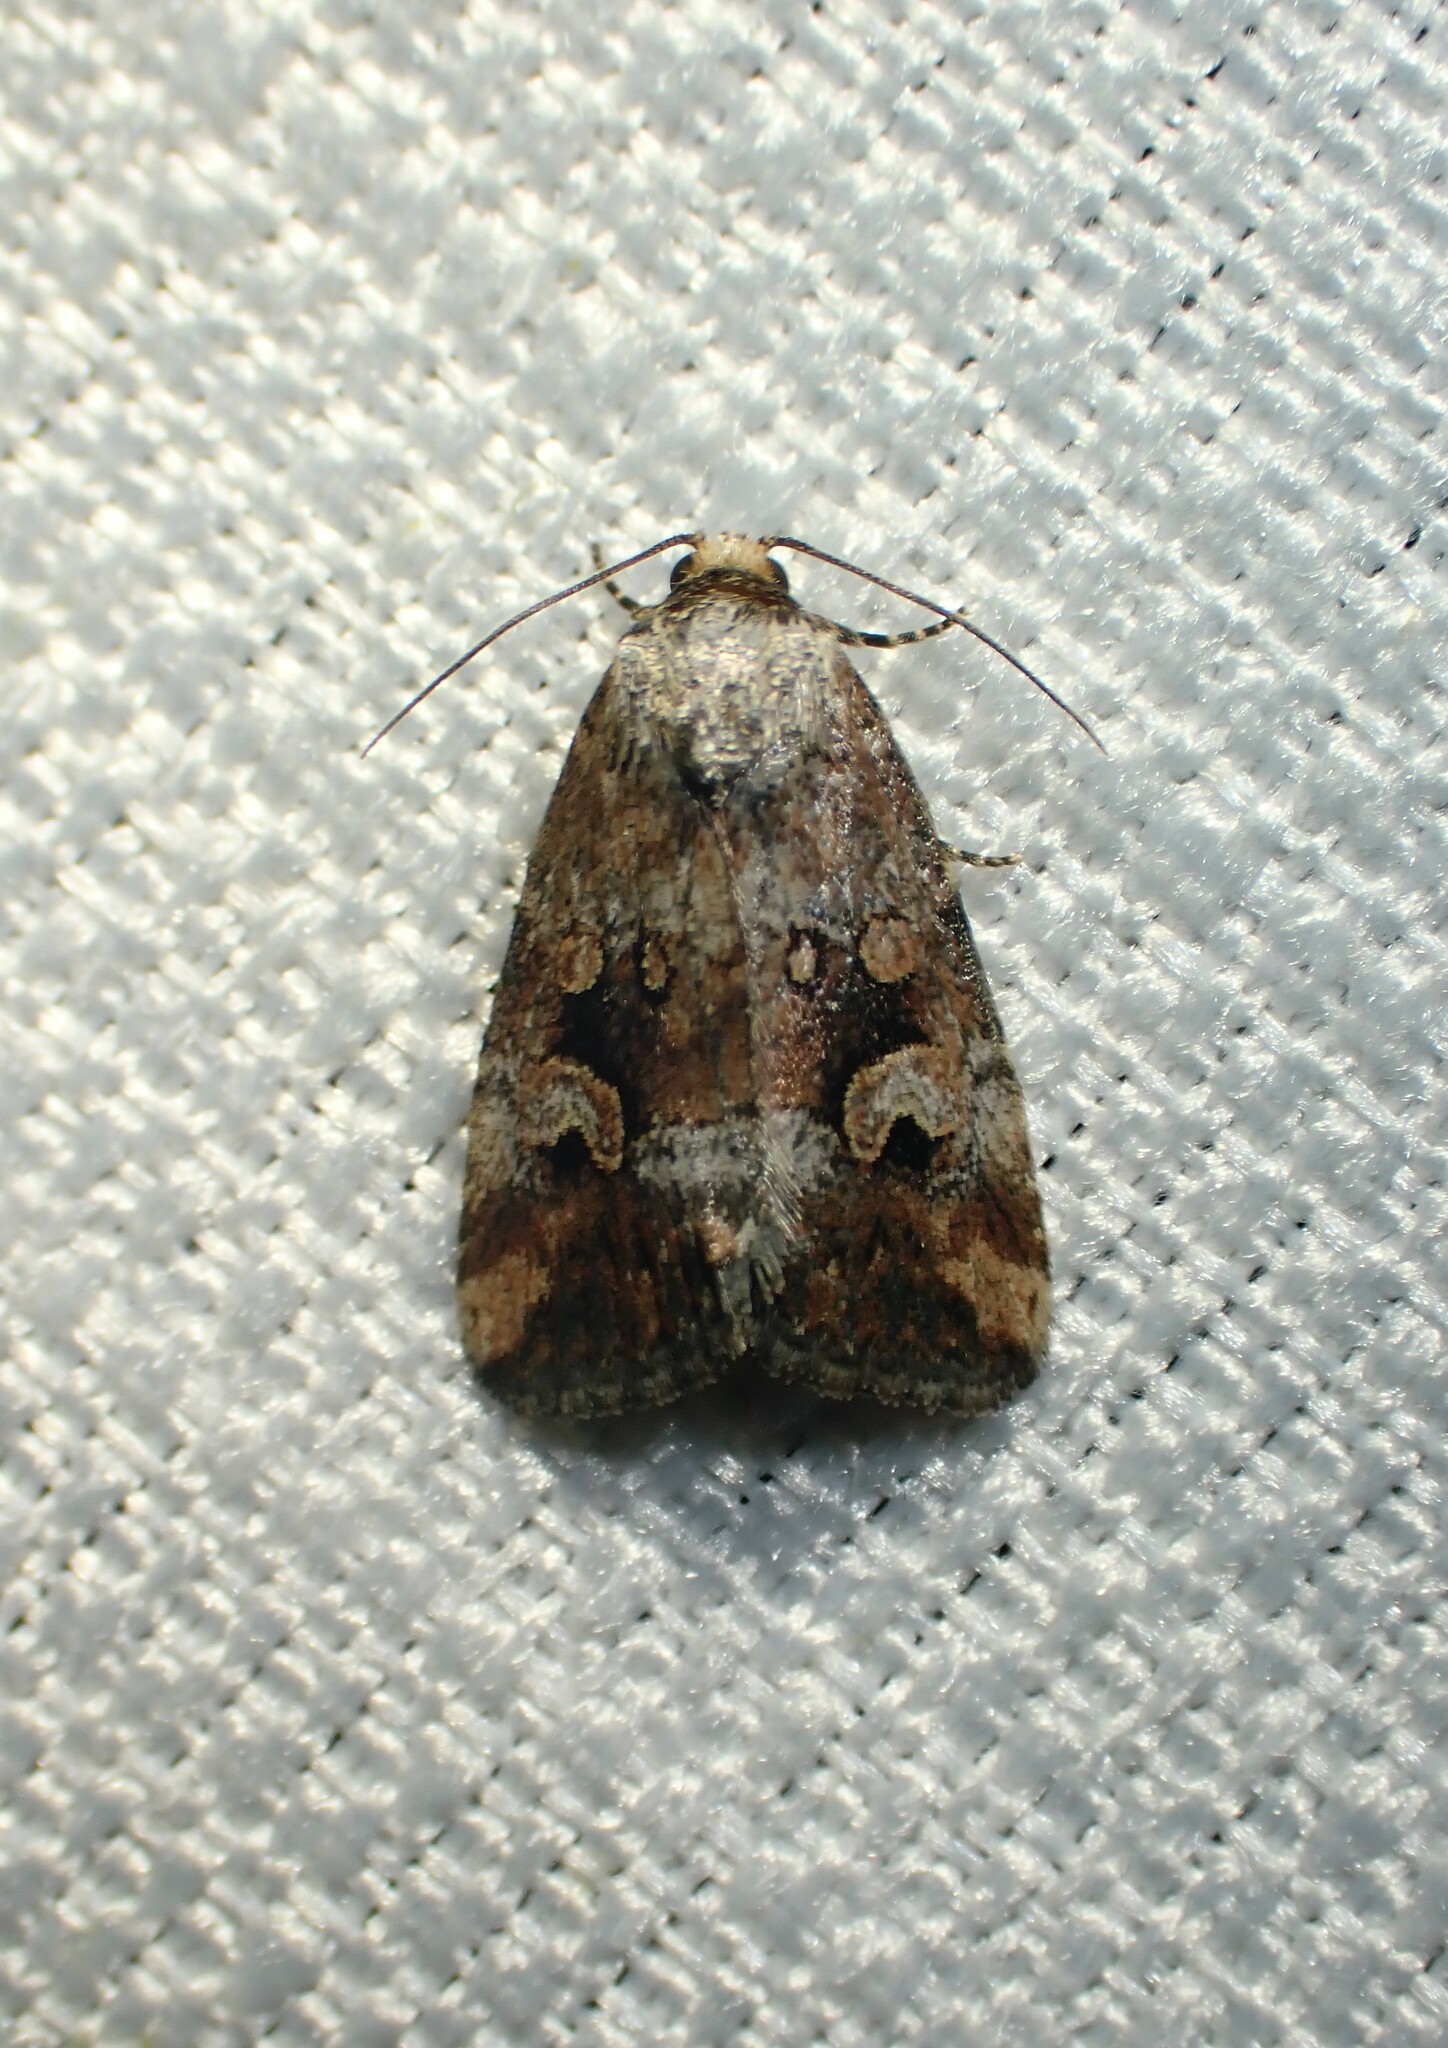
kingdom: Animalia
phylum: Arthropoda
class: Insecta
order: Lepidoptera
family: Noctuidae
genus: Elaphria
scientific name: Elaphria alapallida
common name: Pale-winged midget
